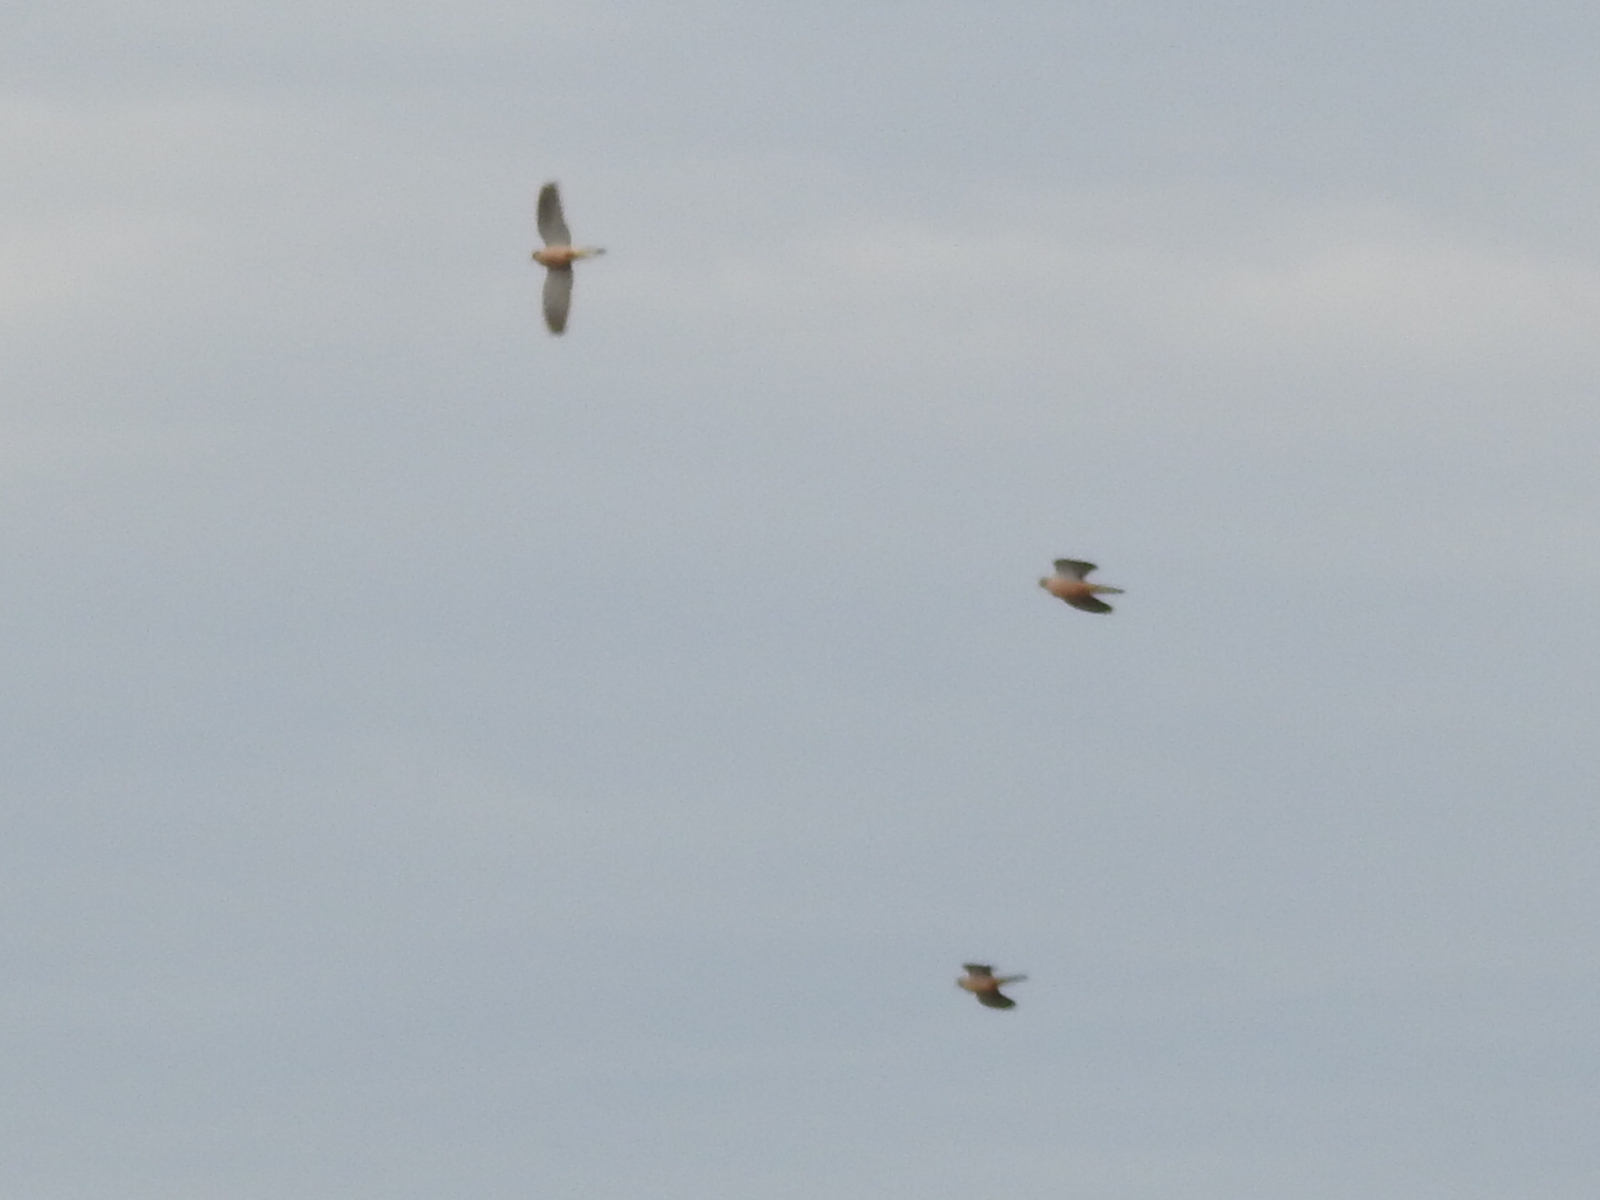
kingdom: Animalia
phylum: Chordata
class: Aves
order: Columbiformes
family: Columbidae
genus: Zenaida
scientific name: Zenaida macroura
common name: Mourning dove
